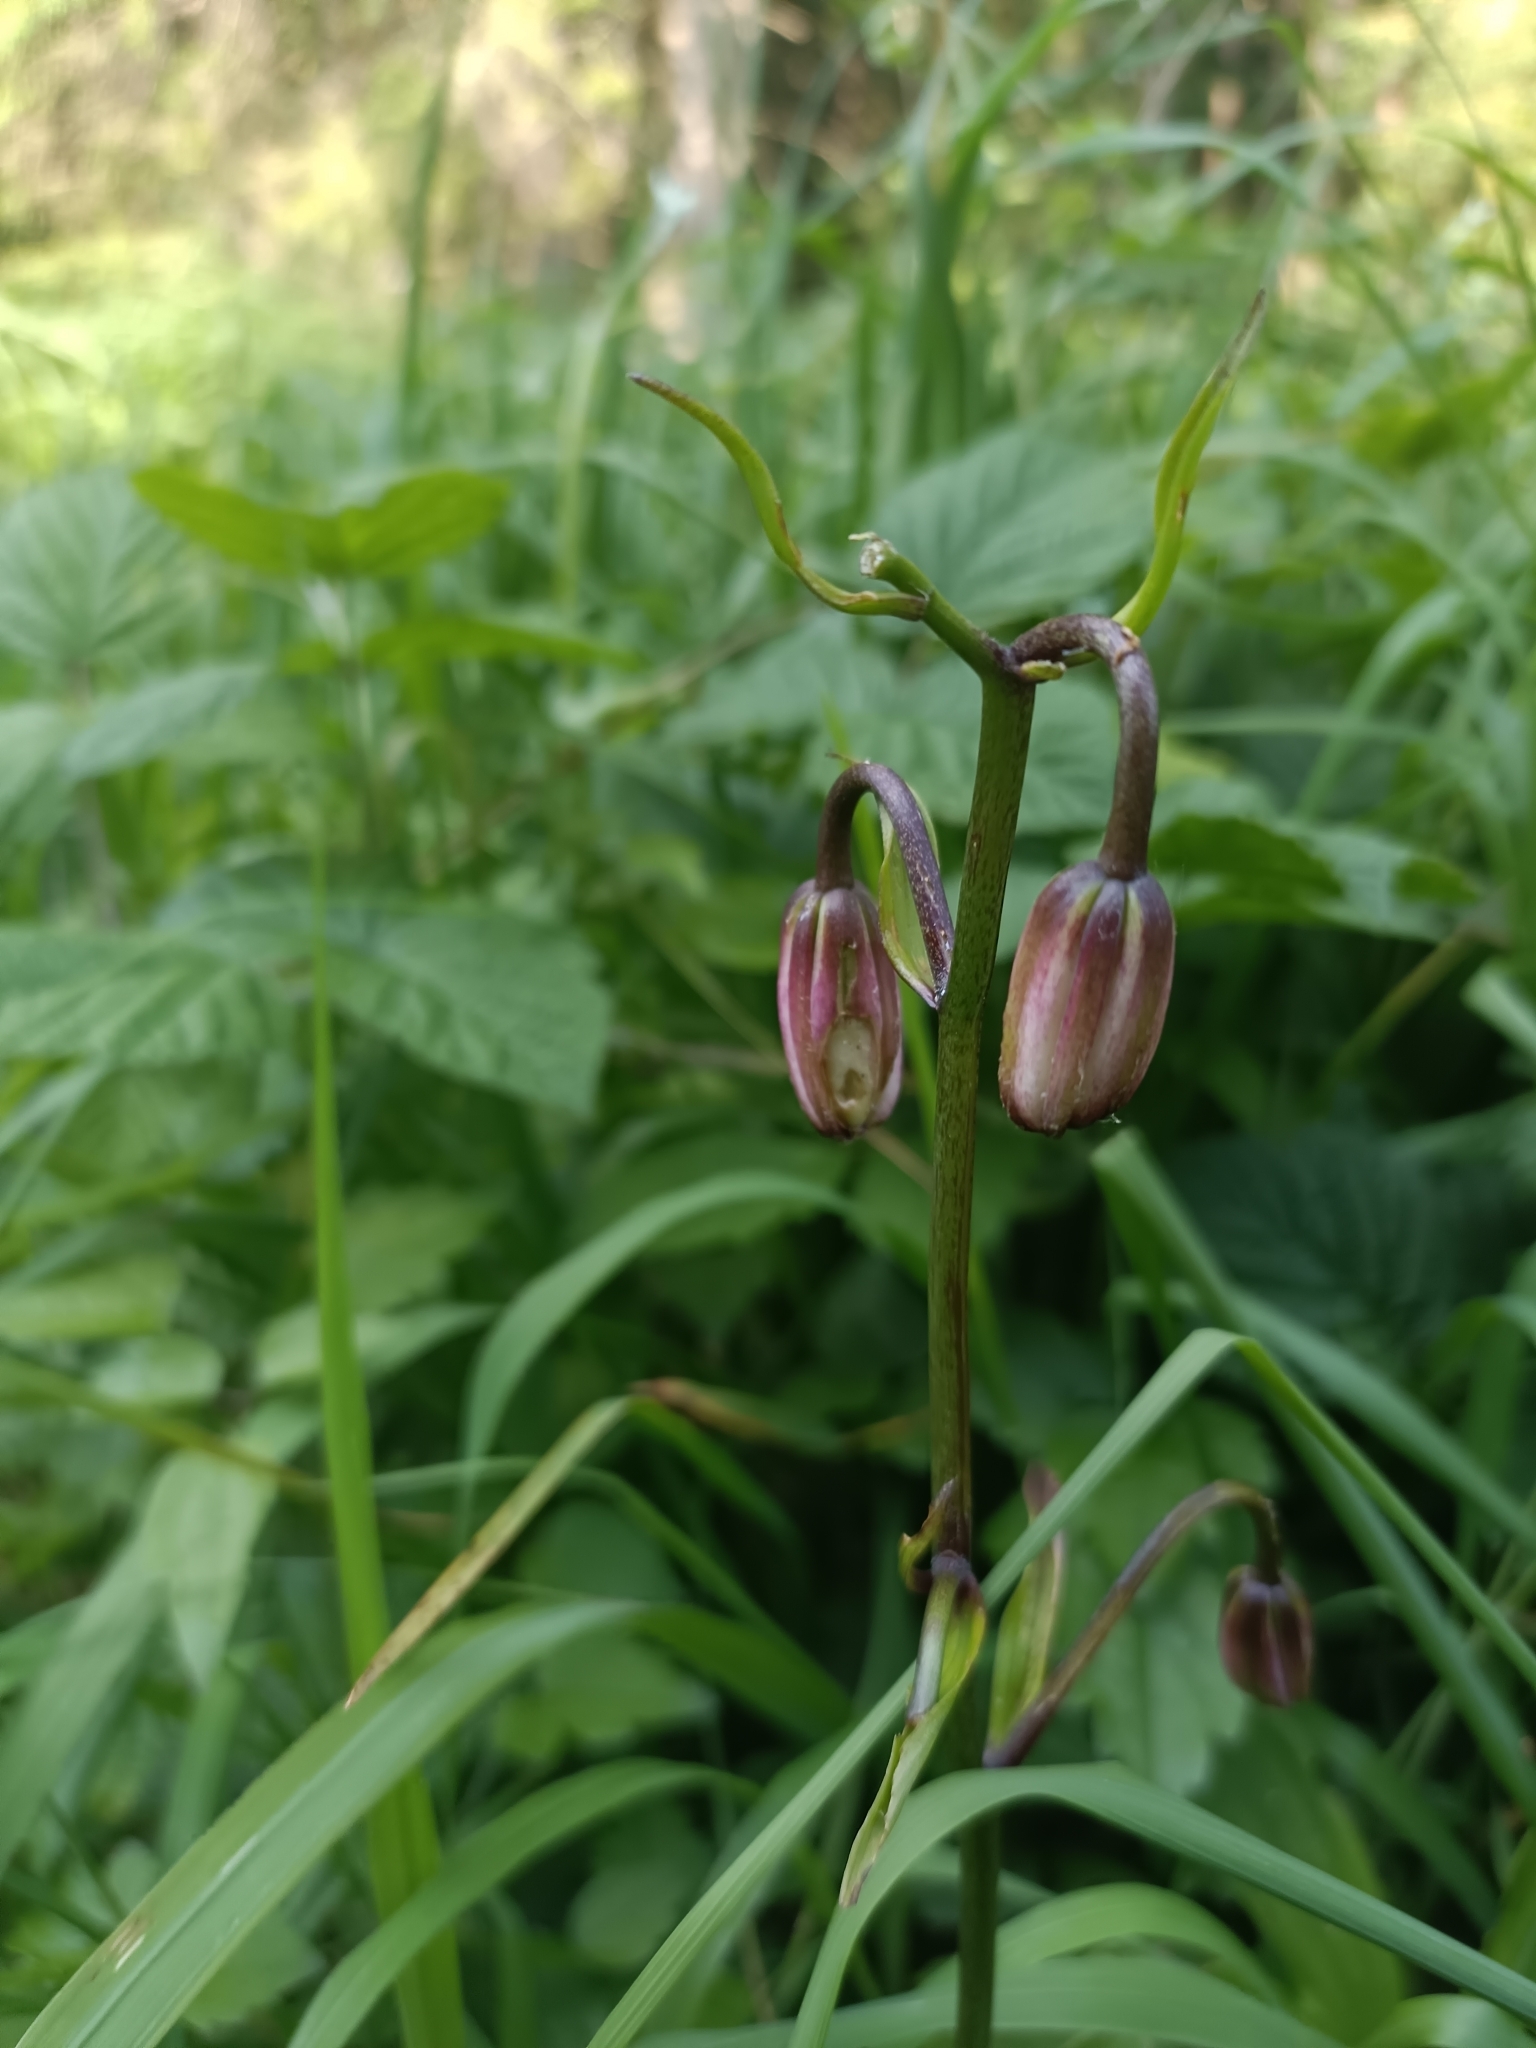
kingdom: Plantae
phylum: Tracheophyta
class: Liliopsida
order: Liliales
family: Liliaceae
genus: Lilium
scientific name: Lilium martagon
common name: Martagon lily
